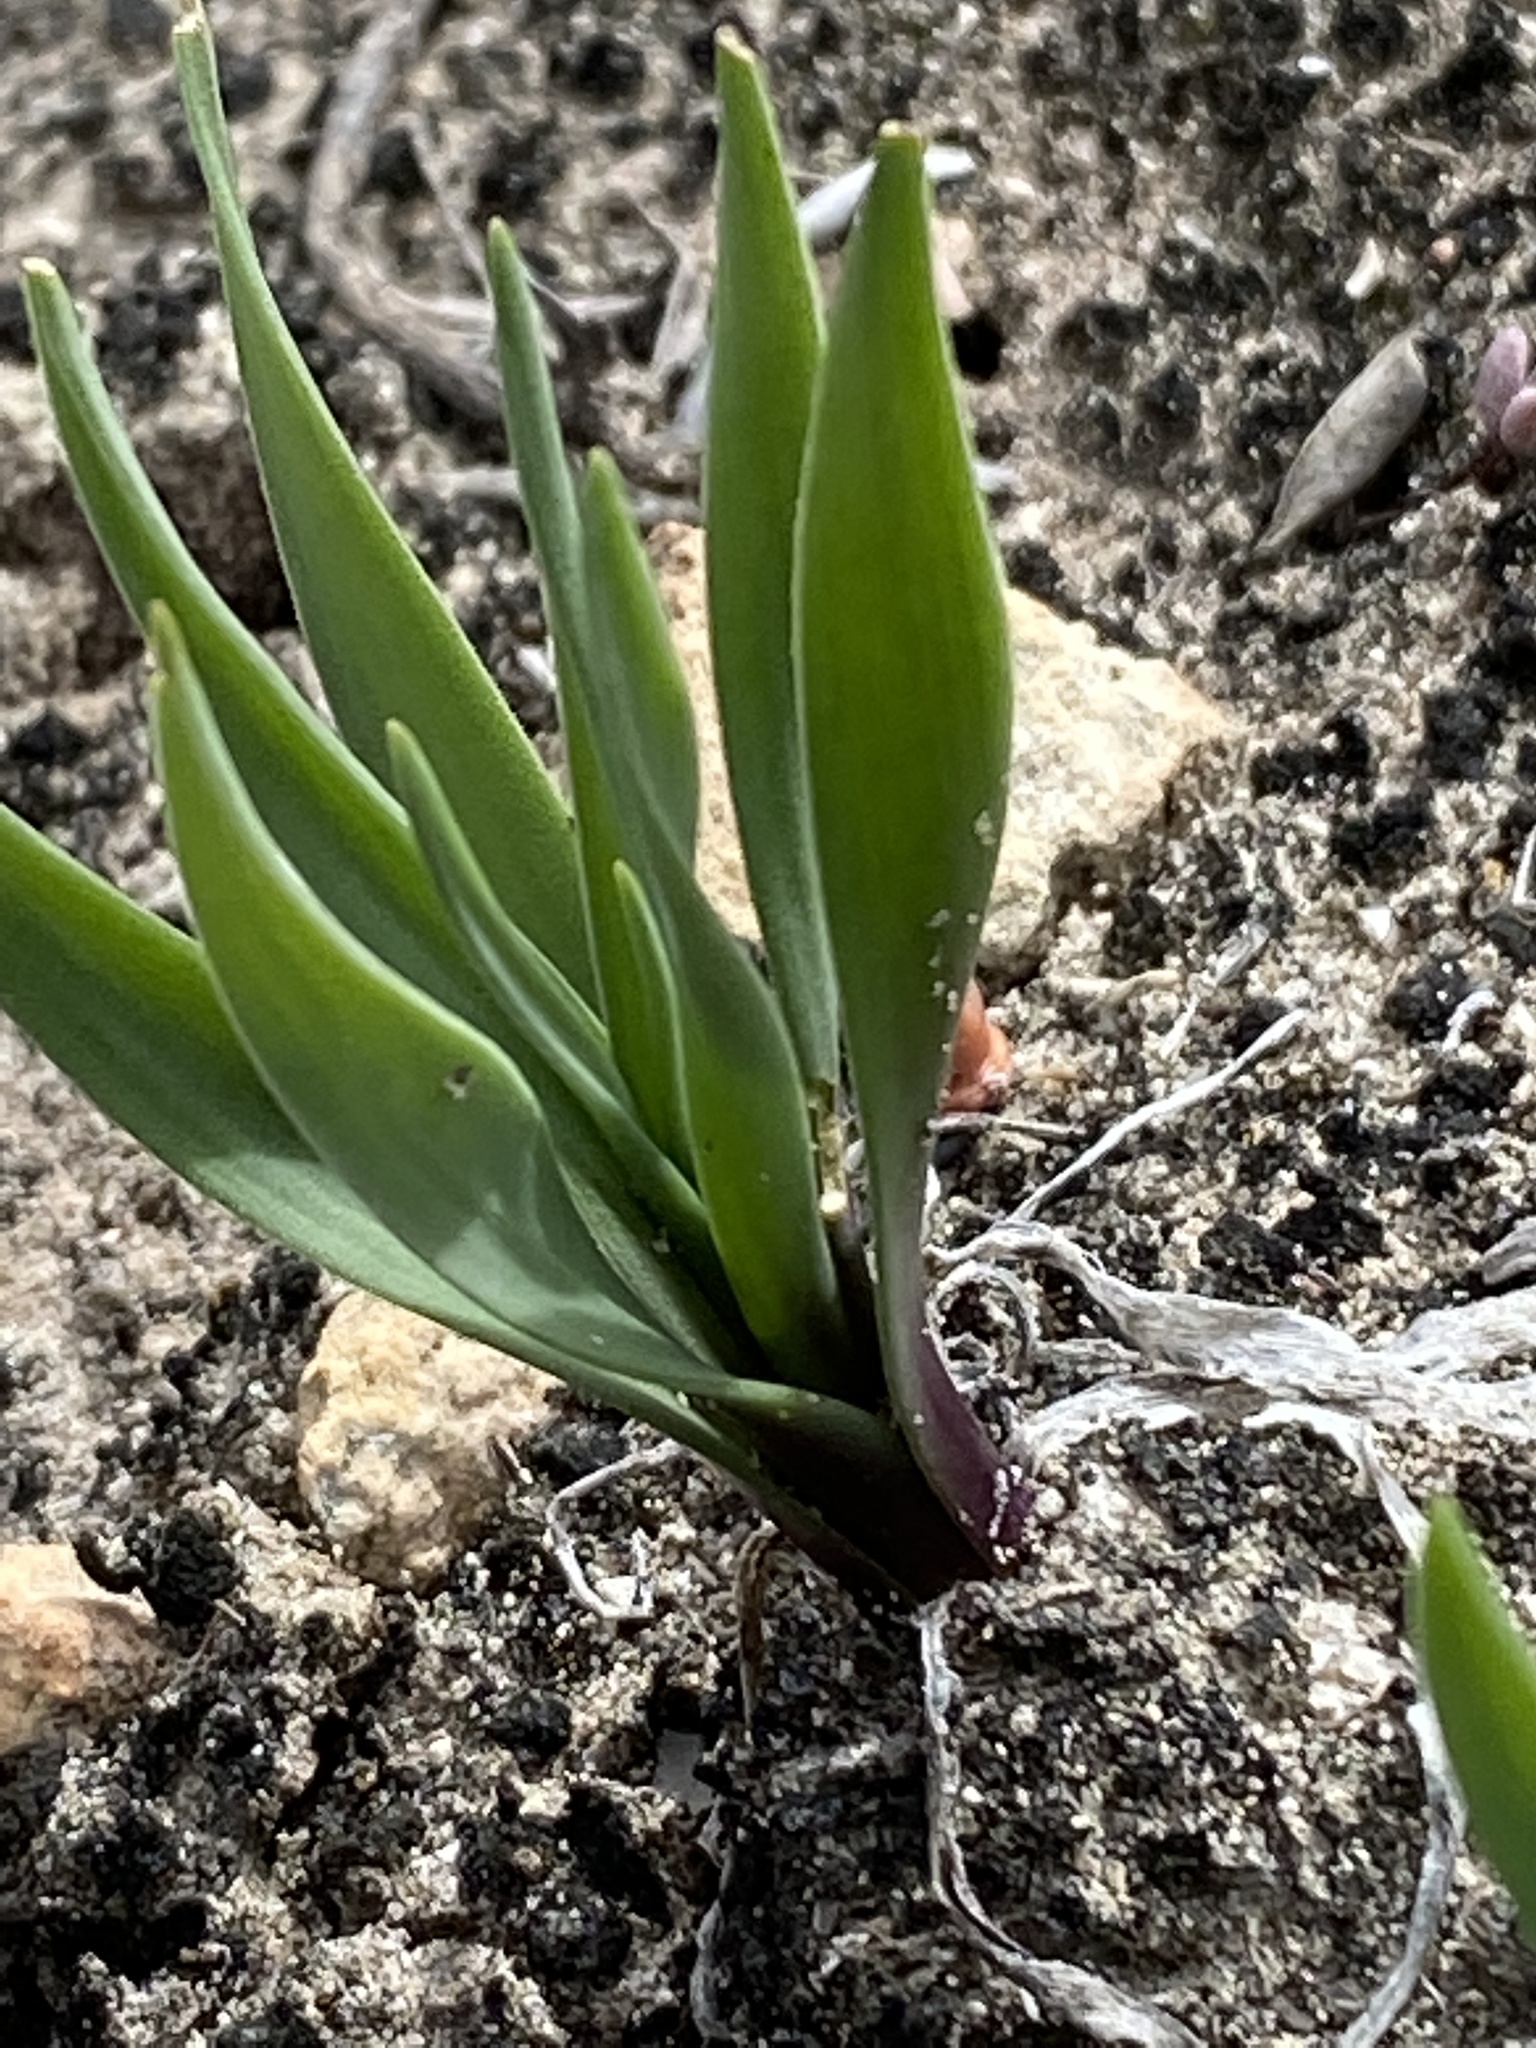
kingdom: Plantae
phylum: Tracheophyta
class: Liliopsida
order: Asparagales
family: Asparagaceae
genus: Fusifilum
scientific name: Fusifilum physodes
